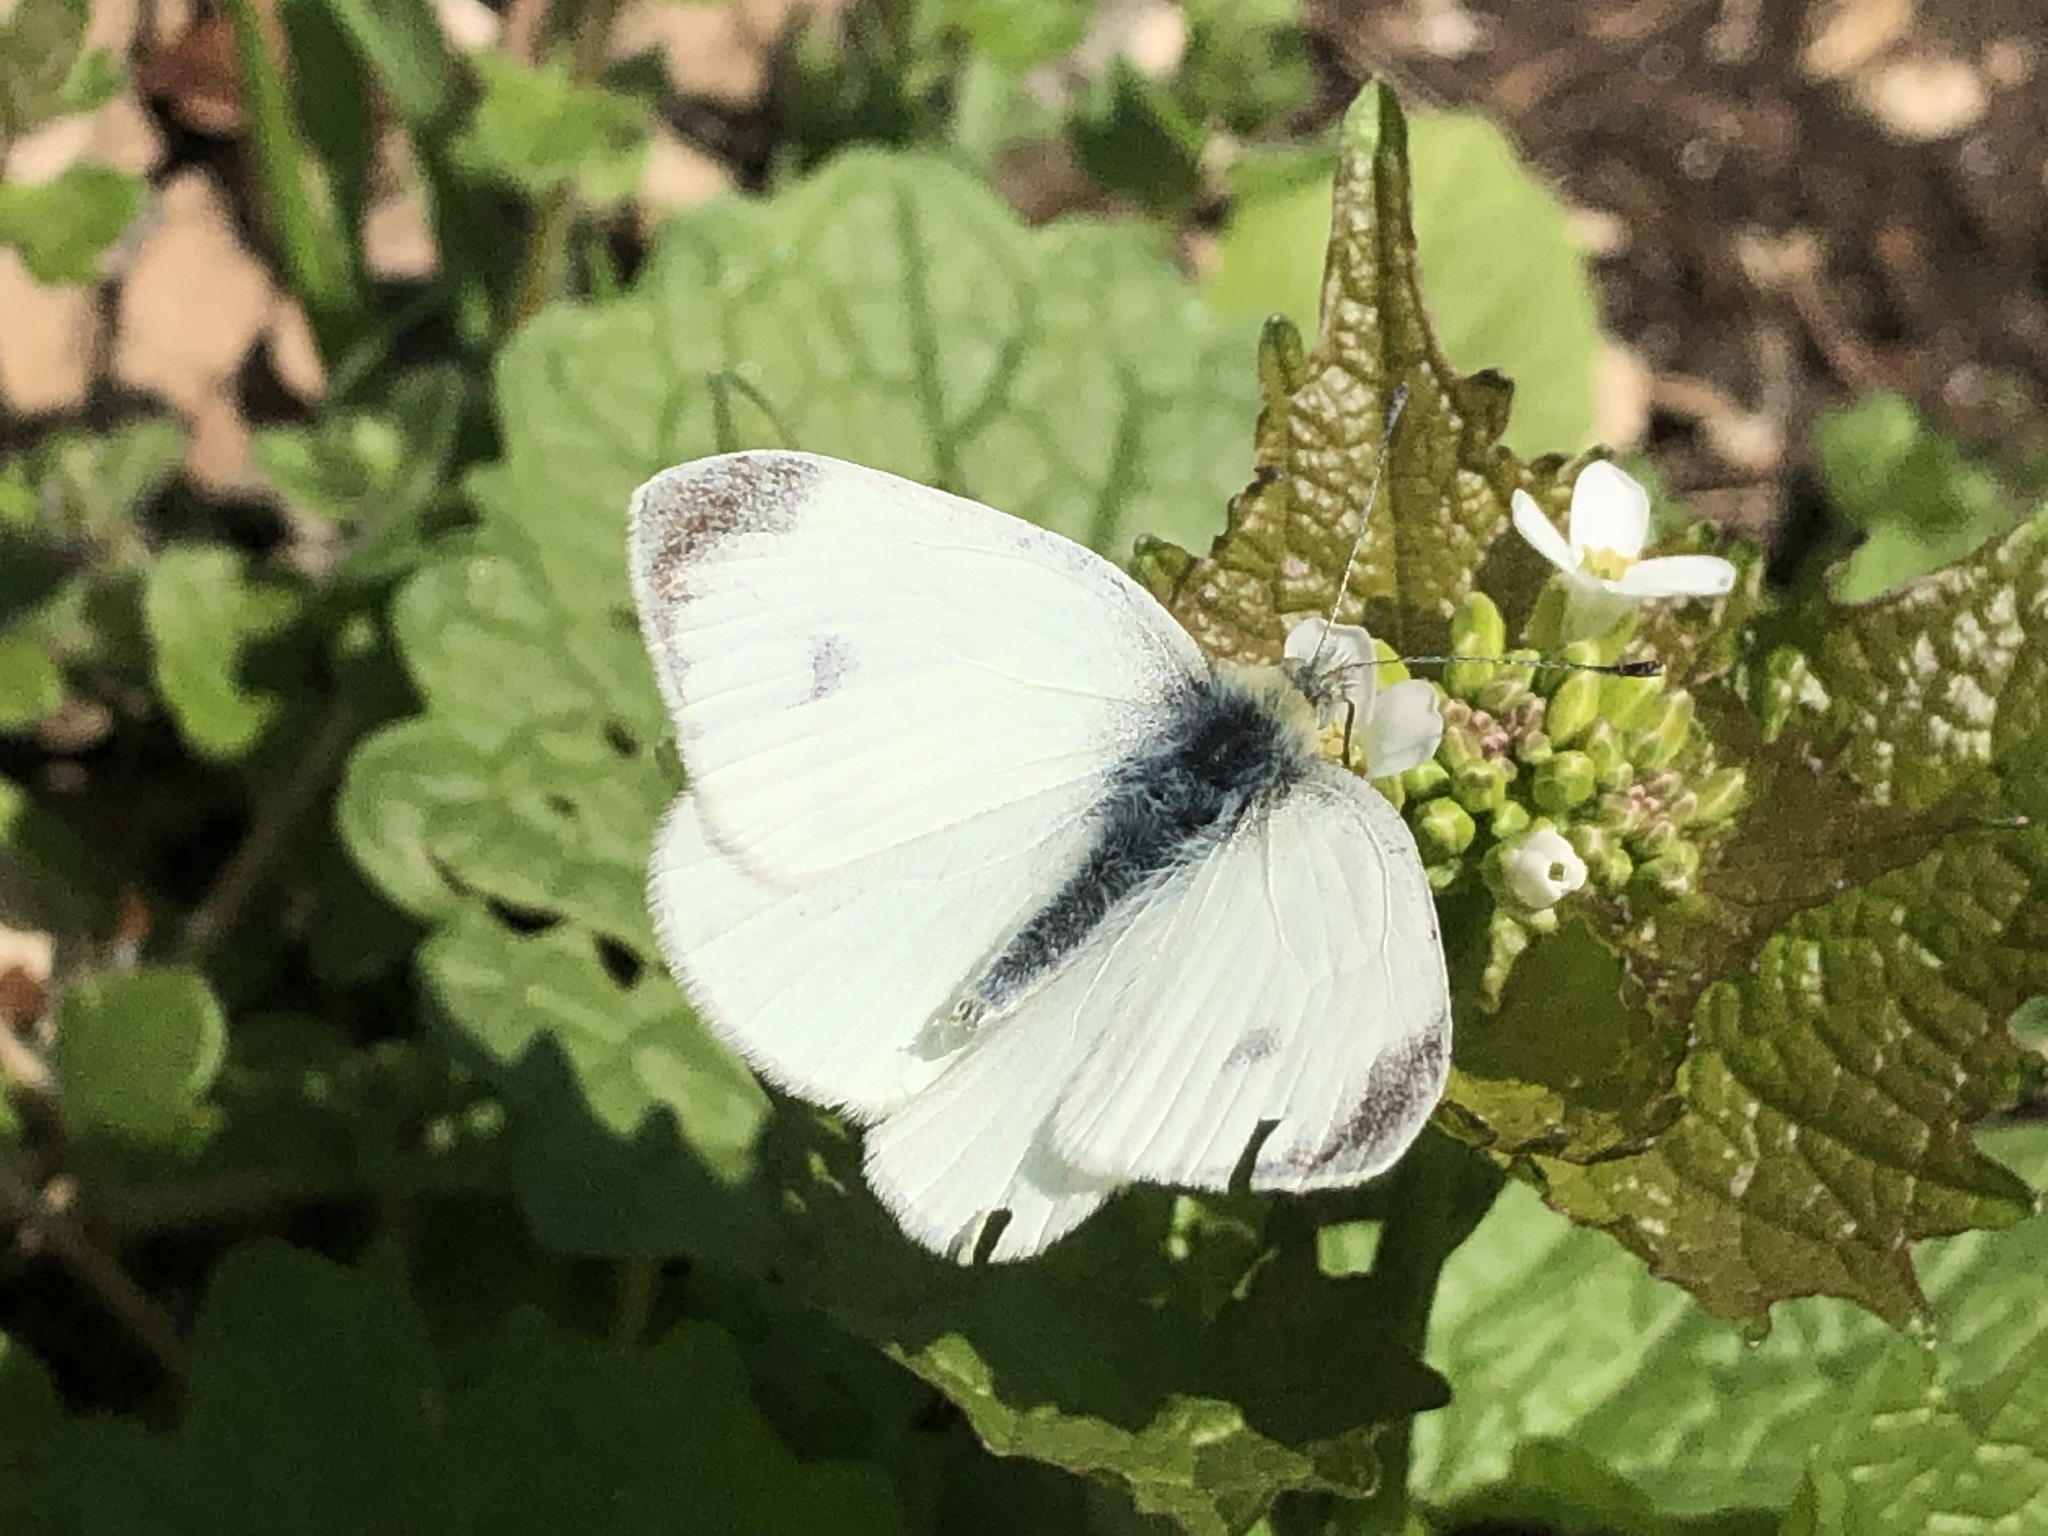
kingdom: Animalia
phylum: Arthropoda
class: Insecta
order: Lepidoptera
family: Pieridae
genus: Pieris
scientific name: Pieris mannii
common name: Southern small white
